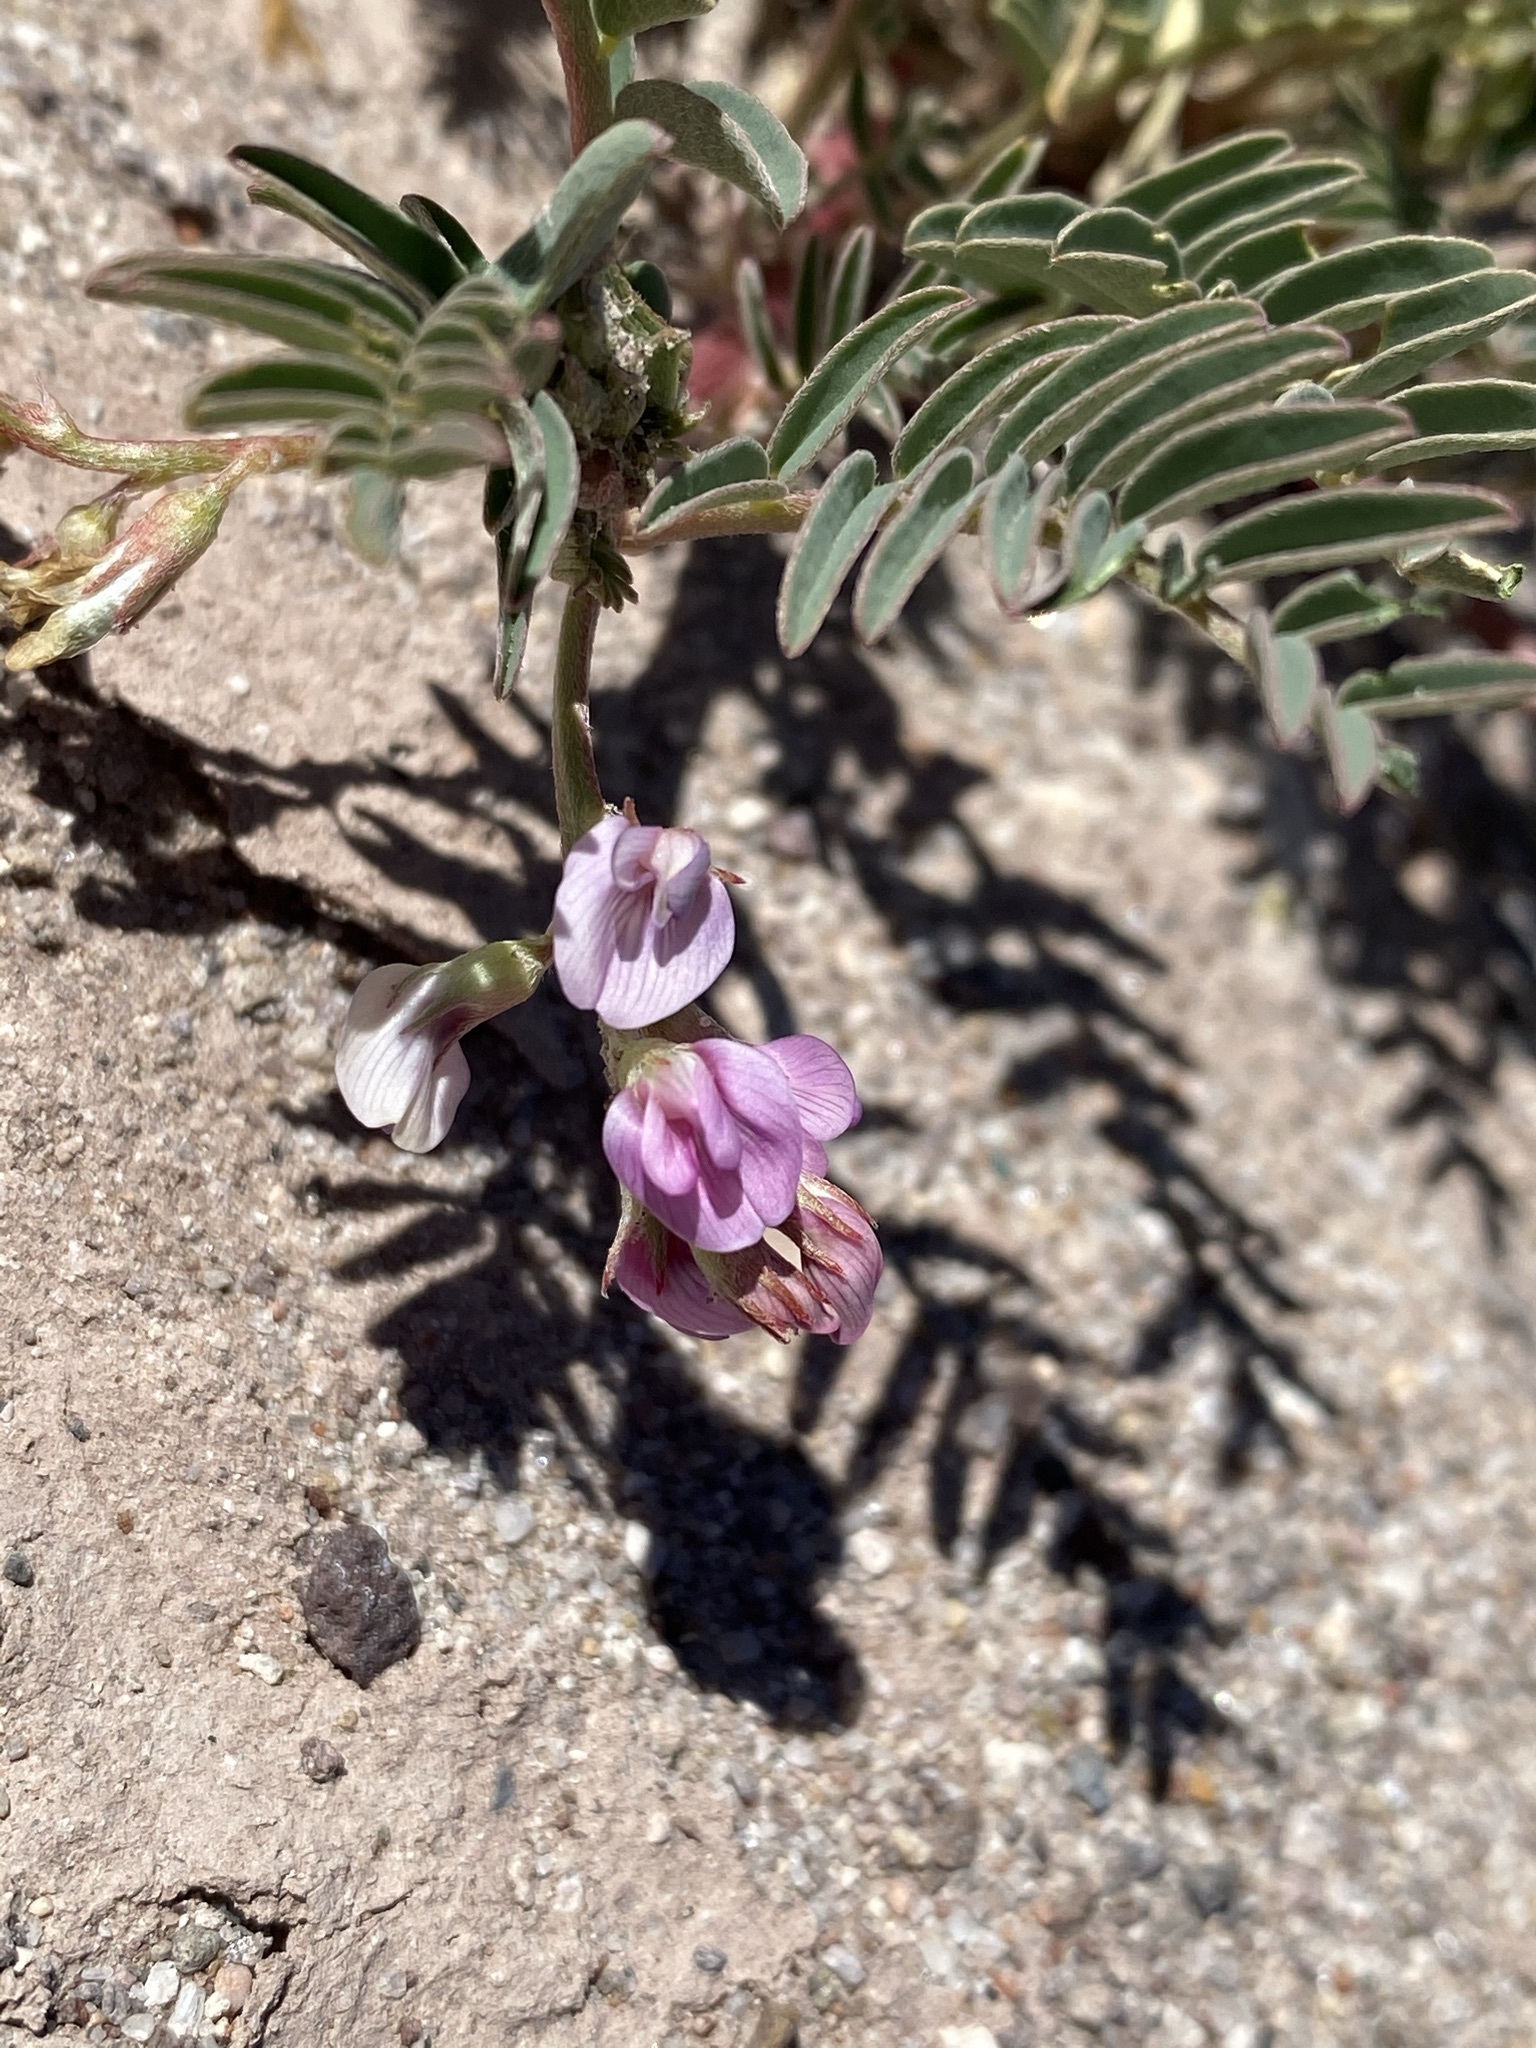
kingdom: Plantae
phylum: Tracheophyta
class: Magnoliopsida
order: Fabales
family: Fabaceae
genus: Astragalus
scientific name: Astragalus allochrous
